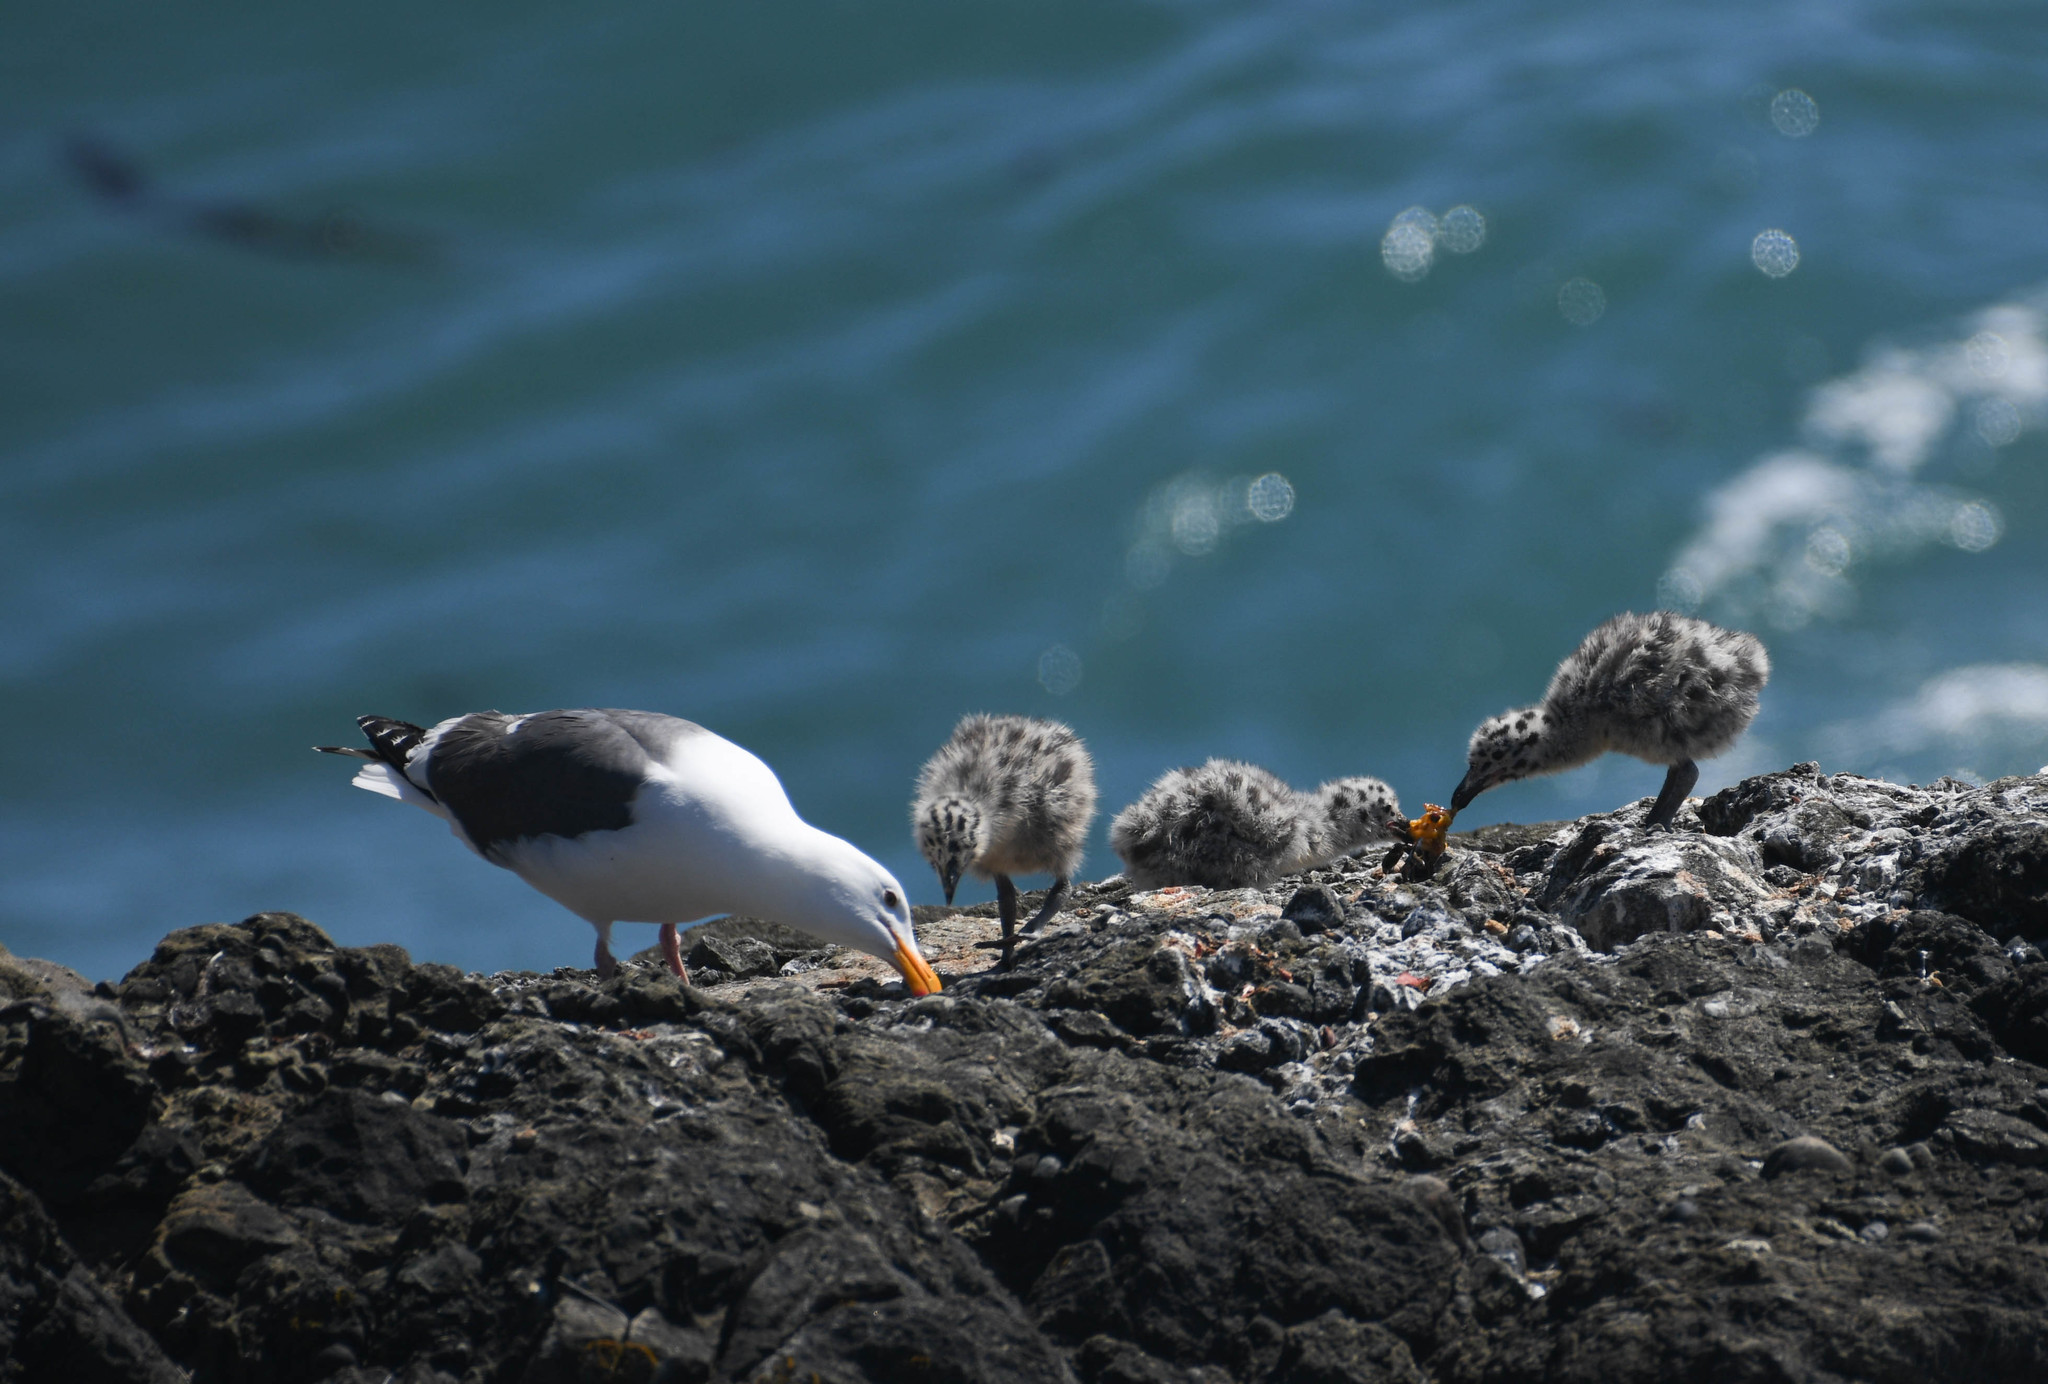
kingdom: Animalia
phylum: Chordata
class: Aves
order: Charadriiformes
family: Laridae
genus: Larus
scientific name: Larus occidentalis
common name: Western gull
